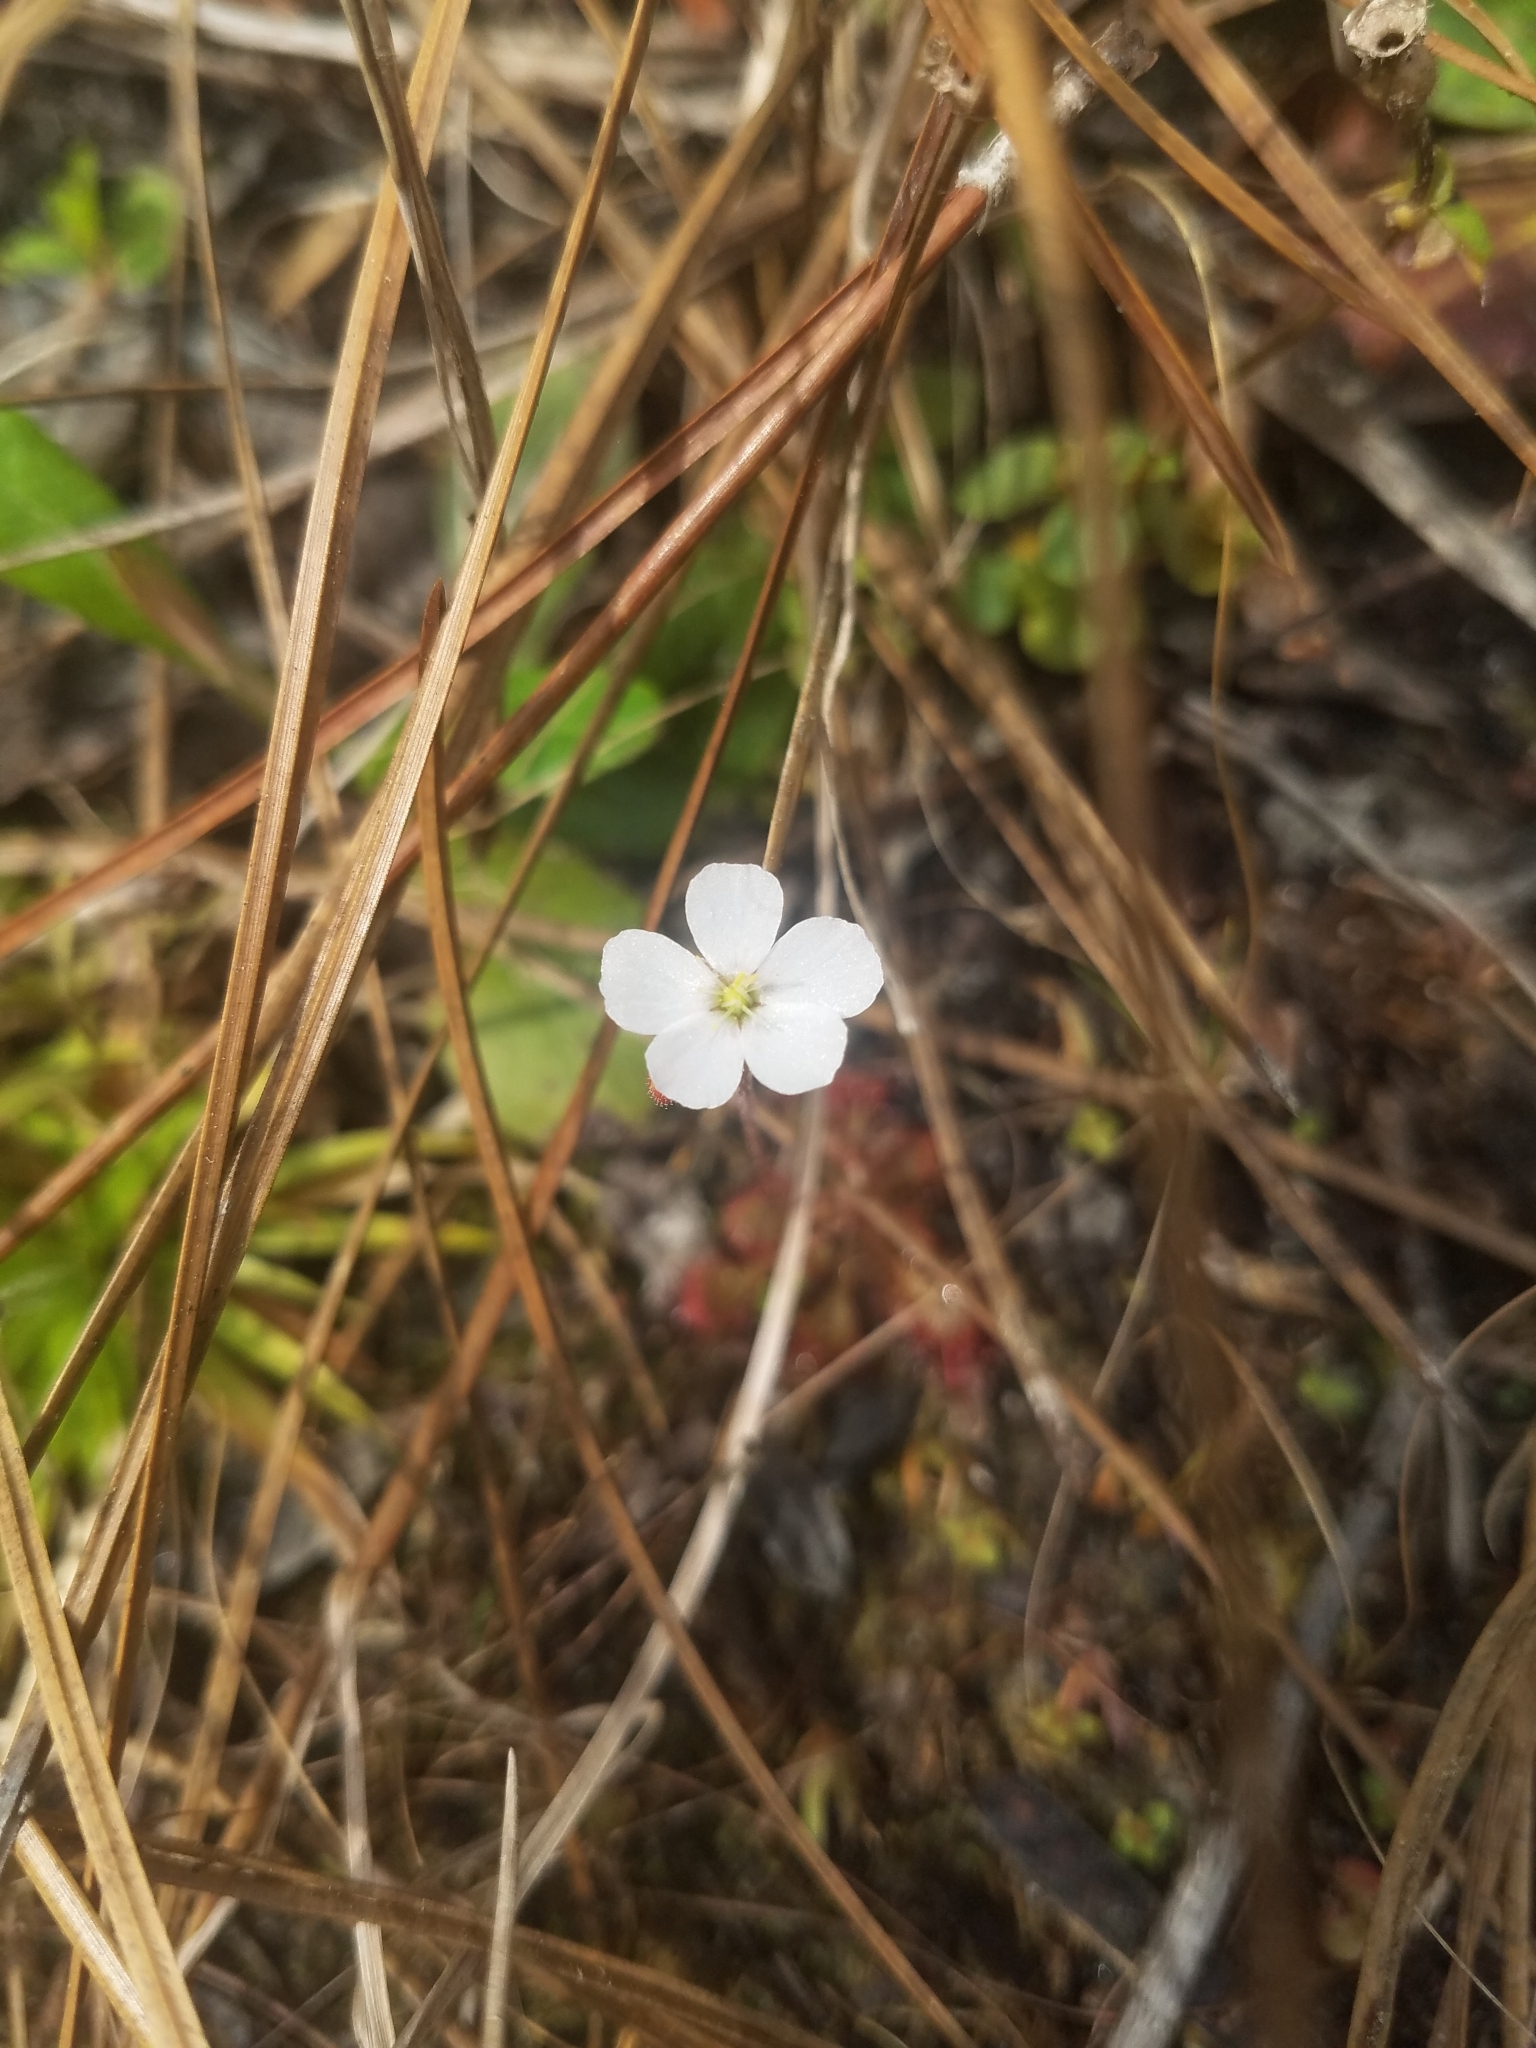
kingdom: Plantae
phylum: Tracheophyta
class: Magnoliopsida
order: Caryophyllales
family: Droseraceae
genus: Drosera
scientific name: Drosera capillaris
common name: Pink sundew
